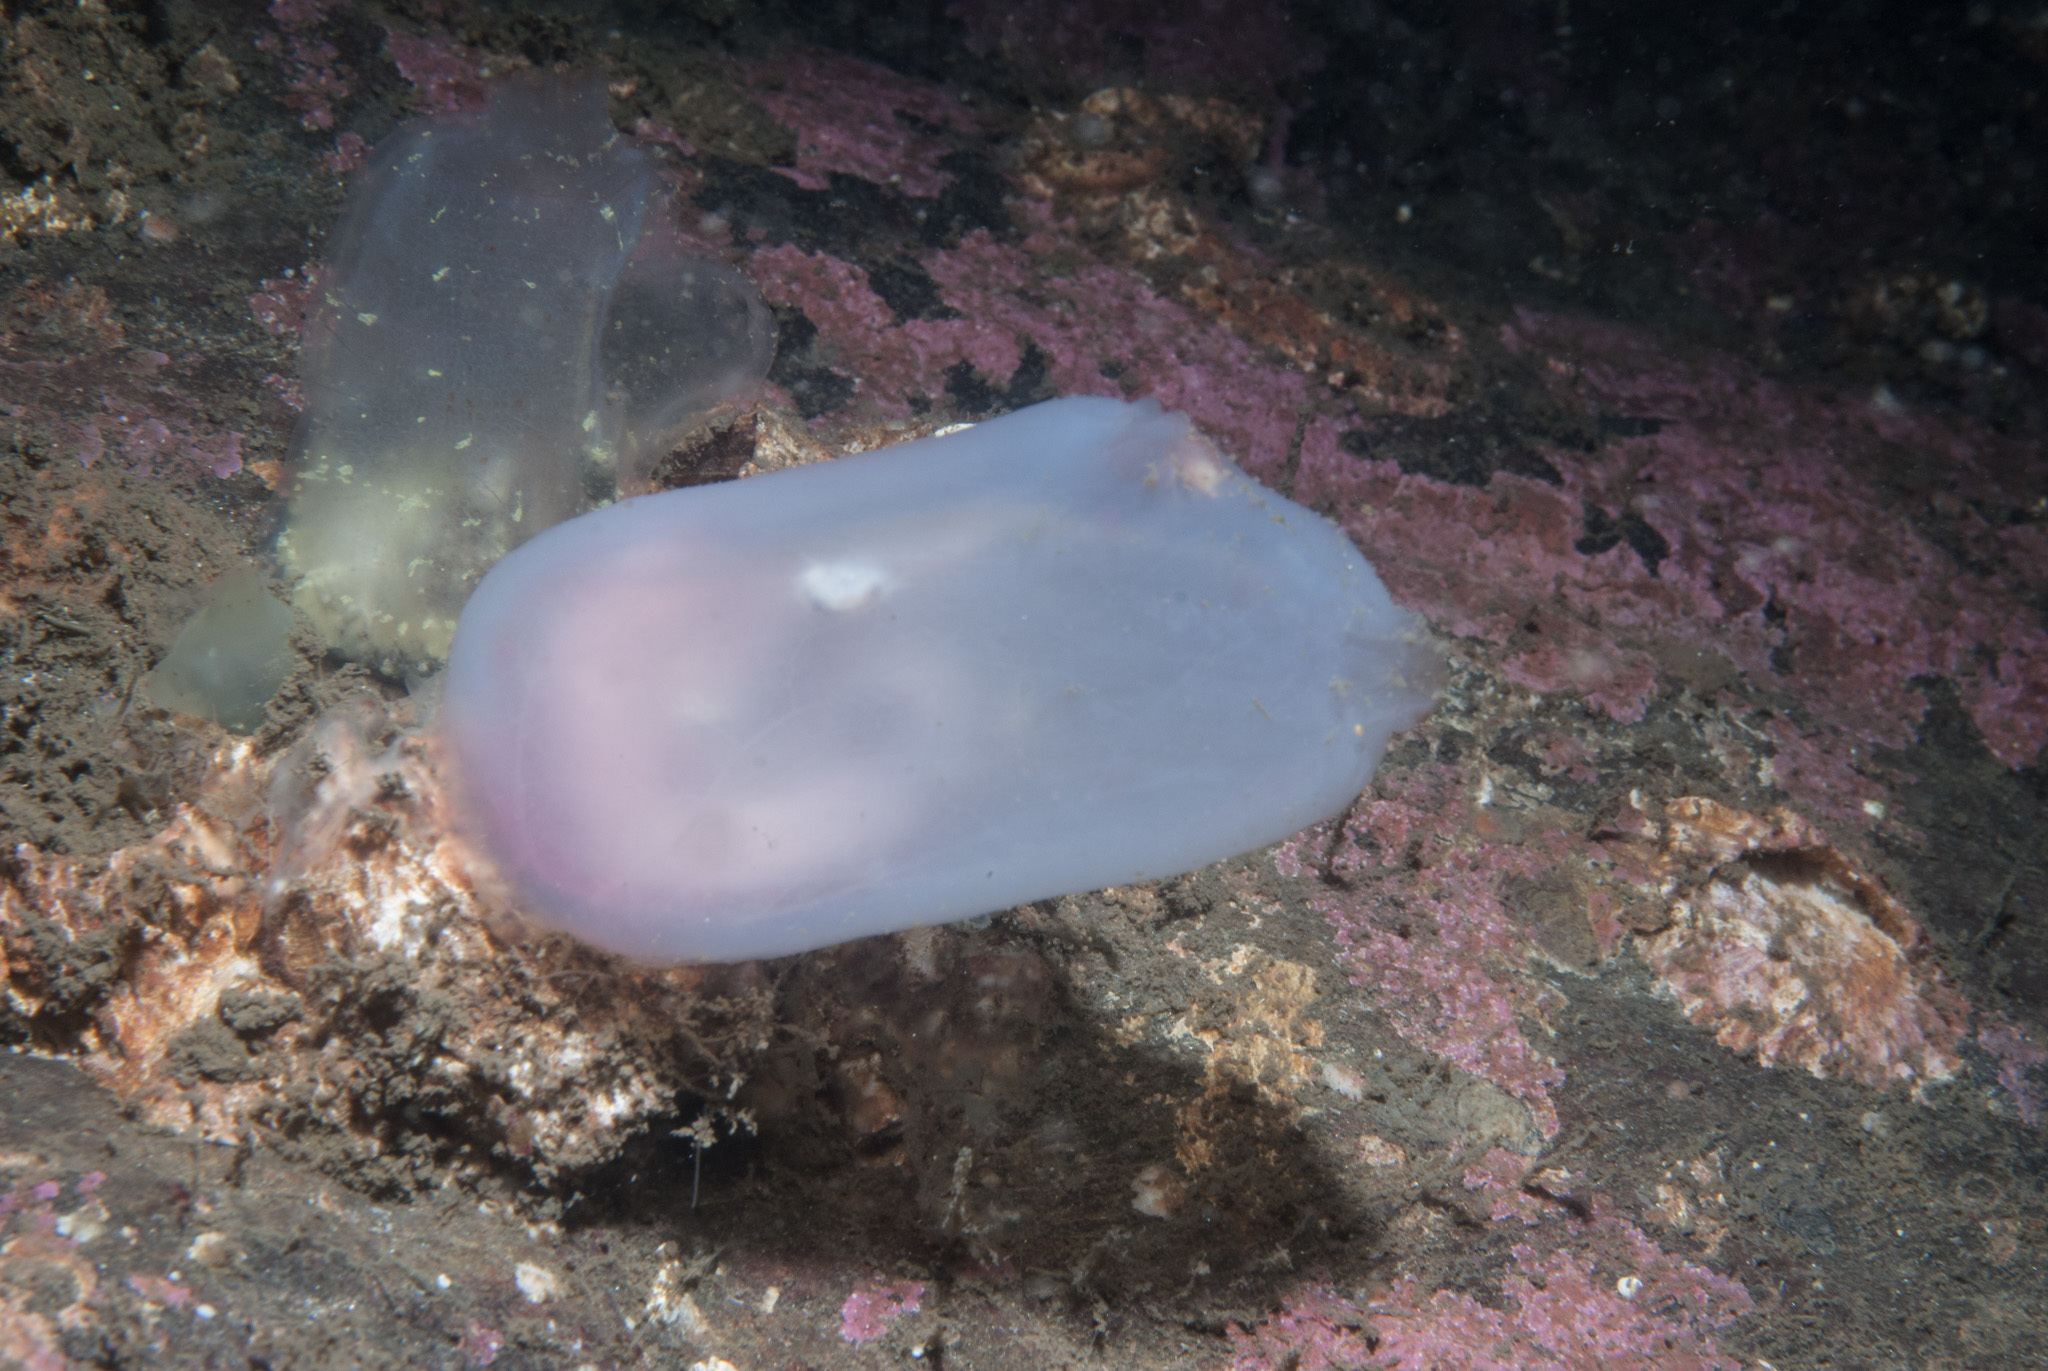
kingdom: Animalia
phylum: Chordata
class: Ascidiacea
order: Phlebobranchia
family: Ascidiidae
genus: Ascidia
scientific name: Ascidia virginea
